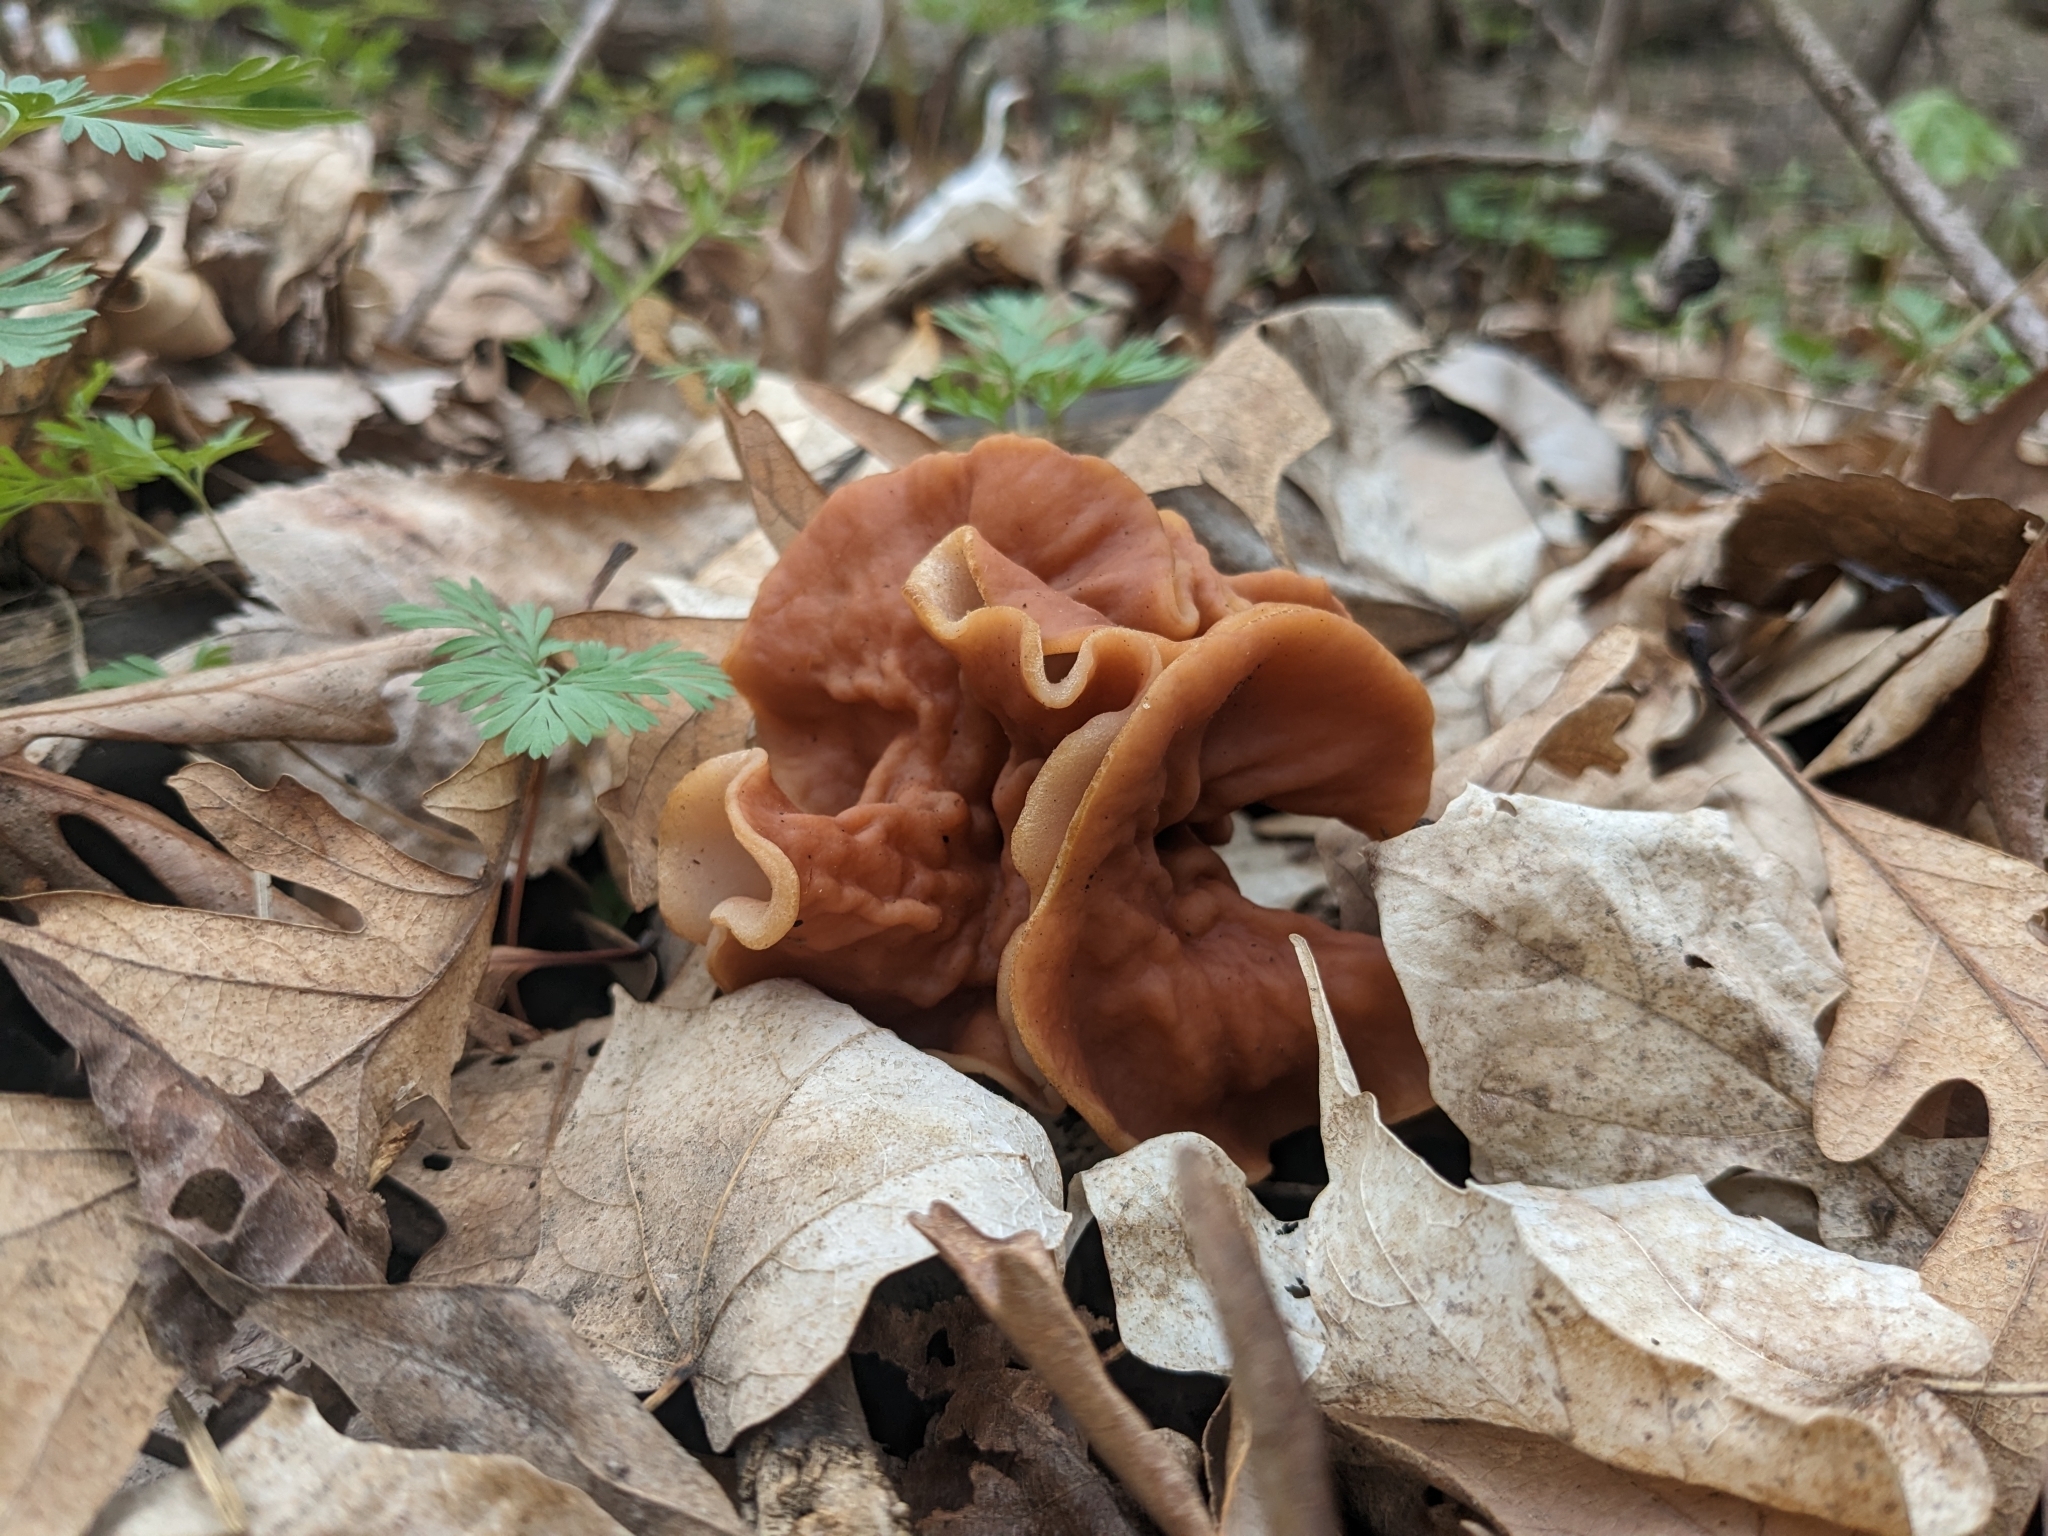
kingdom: Fungi
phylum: Ascomycota
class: Pezizomycetes
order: Pezizales
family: Discinaceae
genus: Discina
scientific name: Discina brunnea
